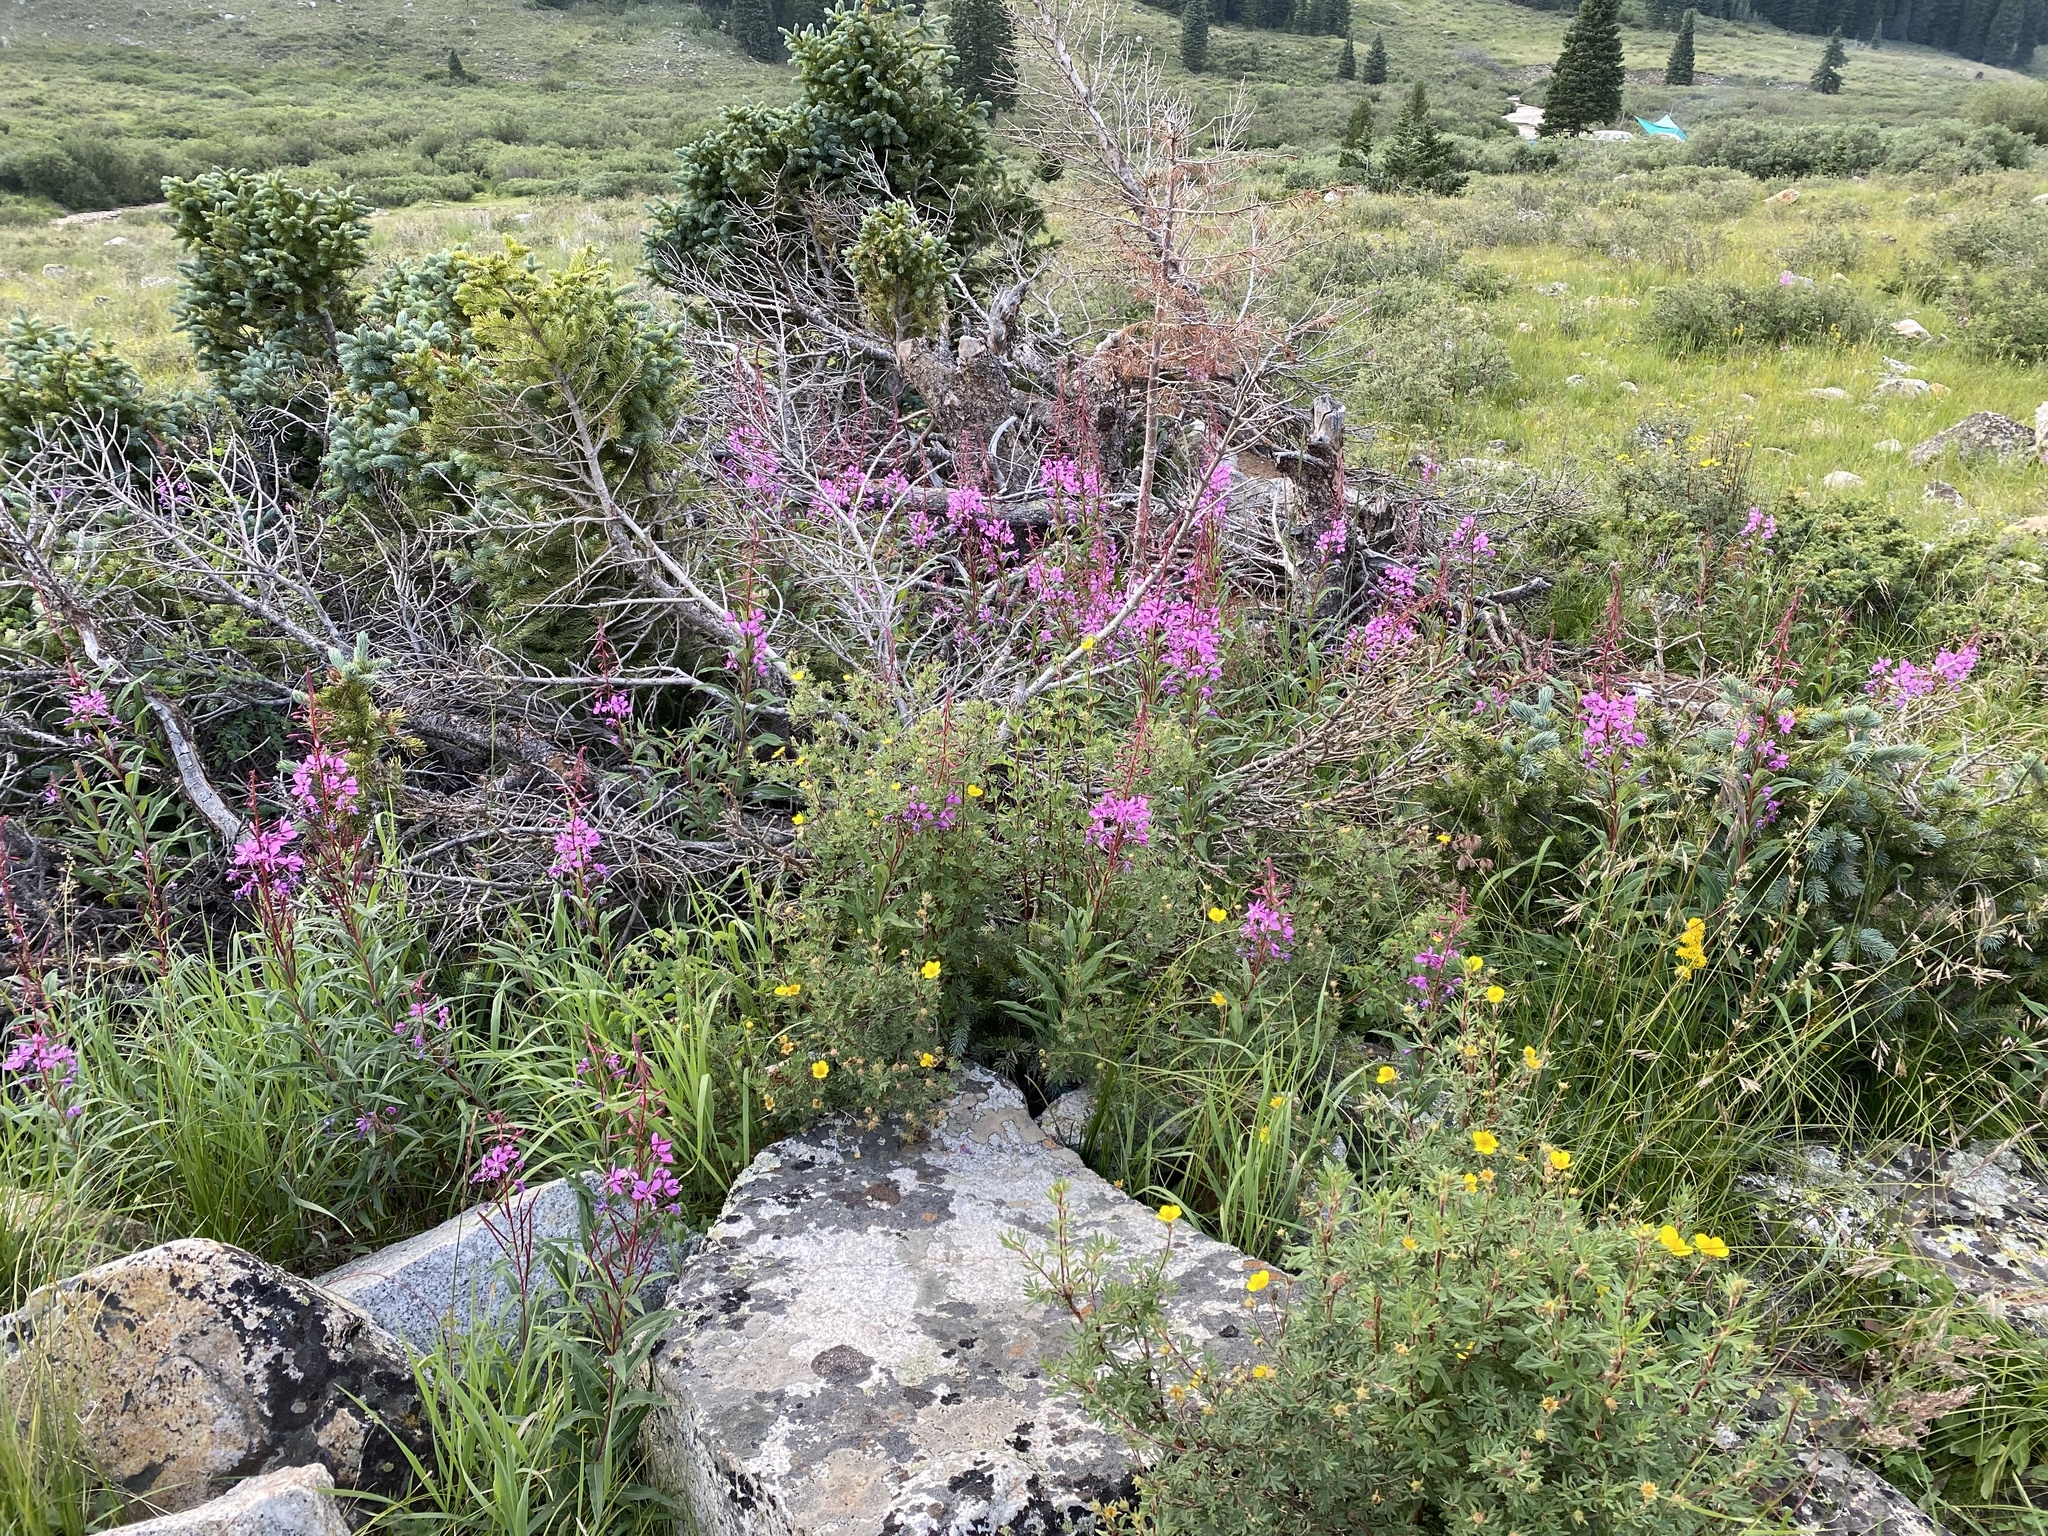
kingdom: Plantae
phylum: Tracheophyta
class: Magnoliopsida
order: Rosales
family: Rosaceae
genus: Dasiphora
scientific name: Dasiphora fruticosa
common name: Shrubby cinquefoil
